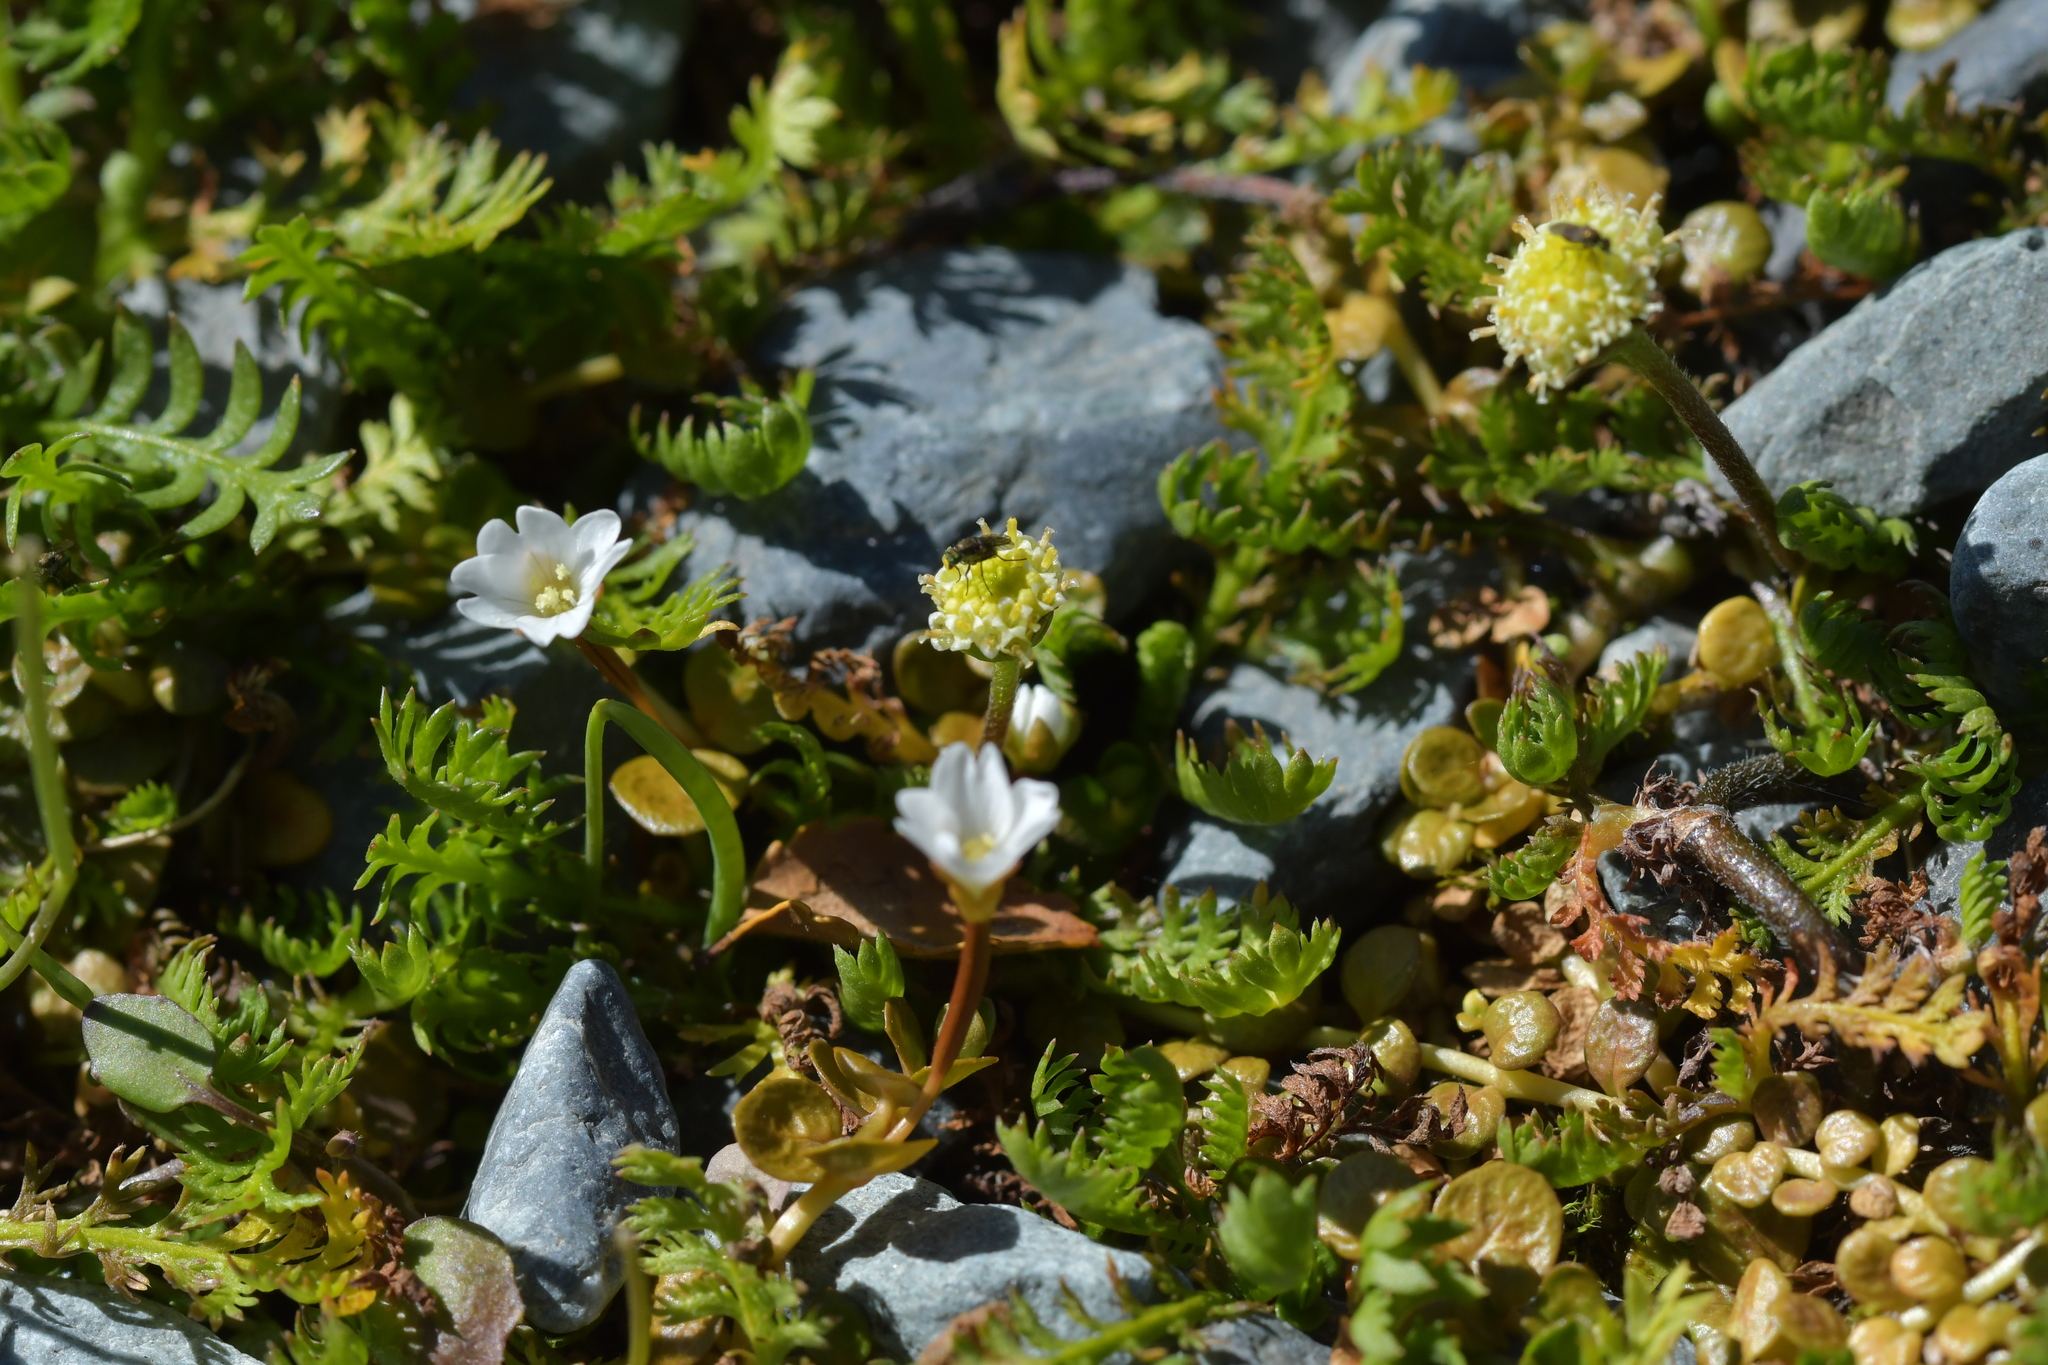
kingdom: Plantae
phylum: Tracheophyta
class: Magnoliopsida
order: Asterales
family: Asteraceae
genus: Leptinella
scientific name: Leptinella squalida
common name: New zealand brass-buttons
